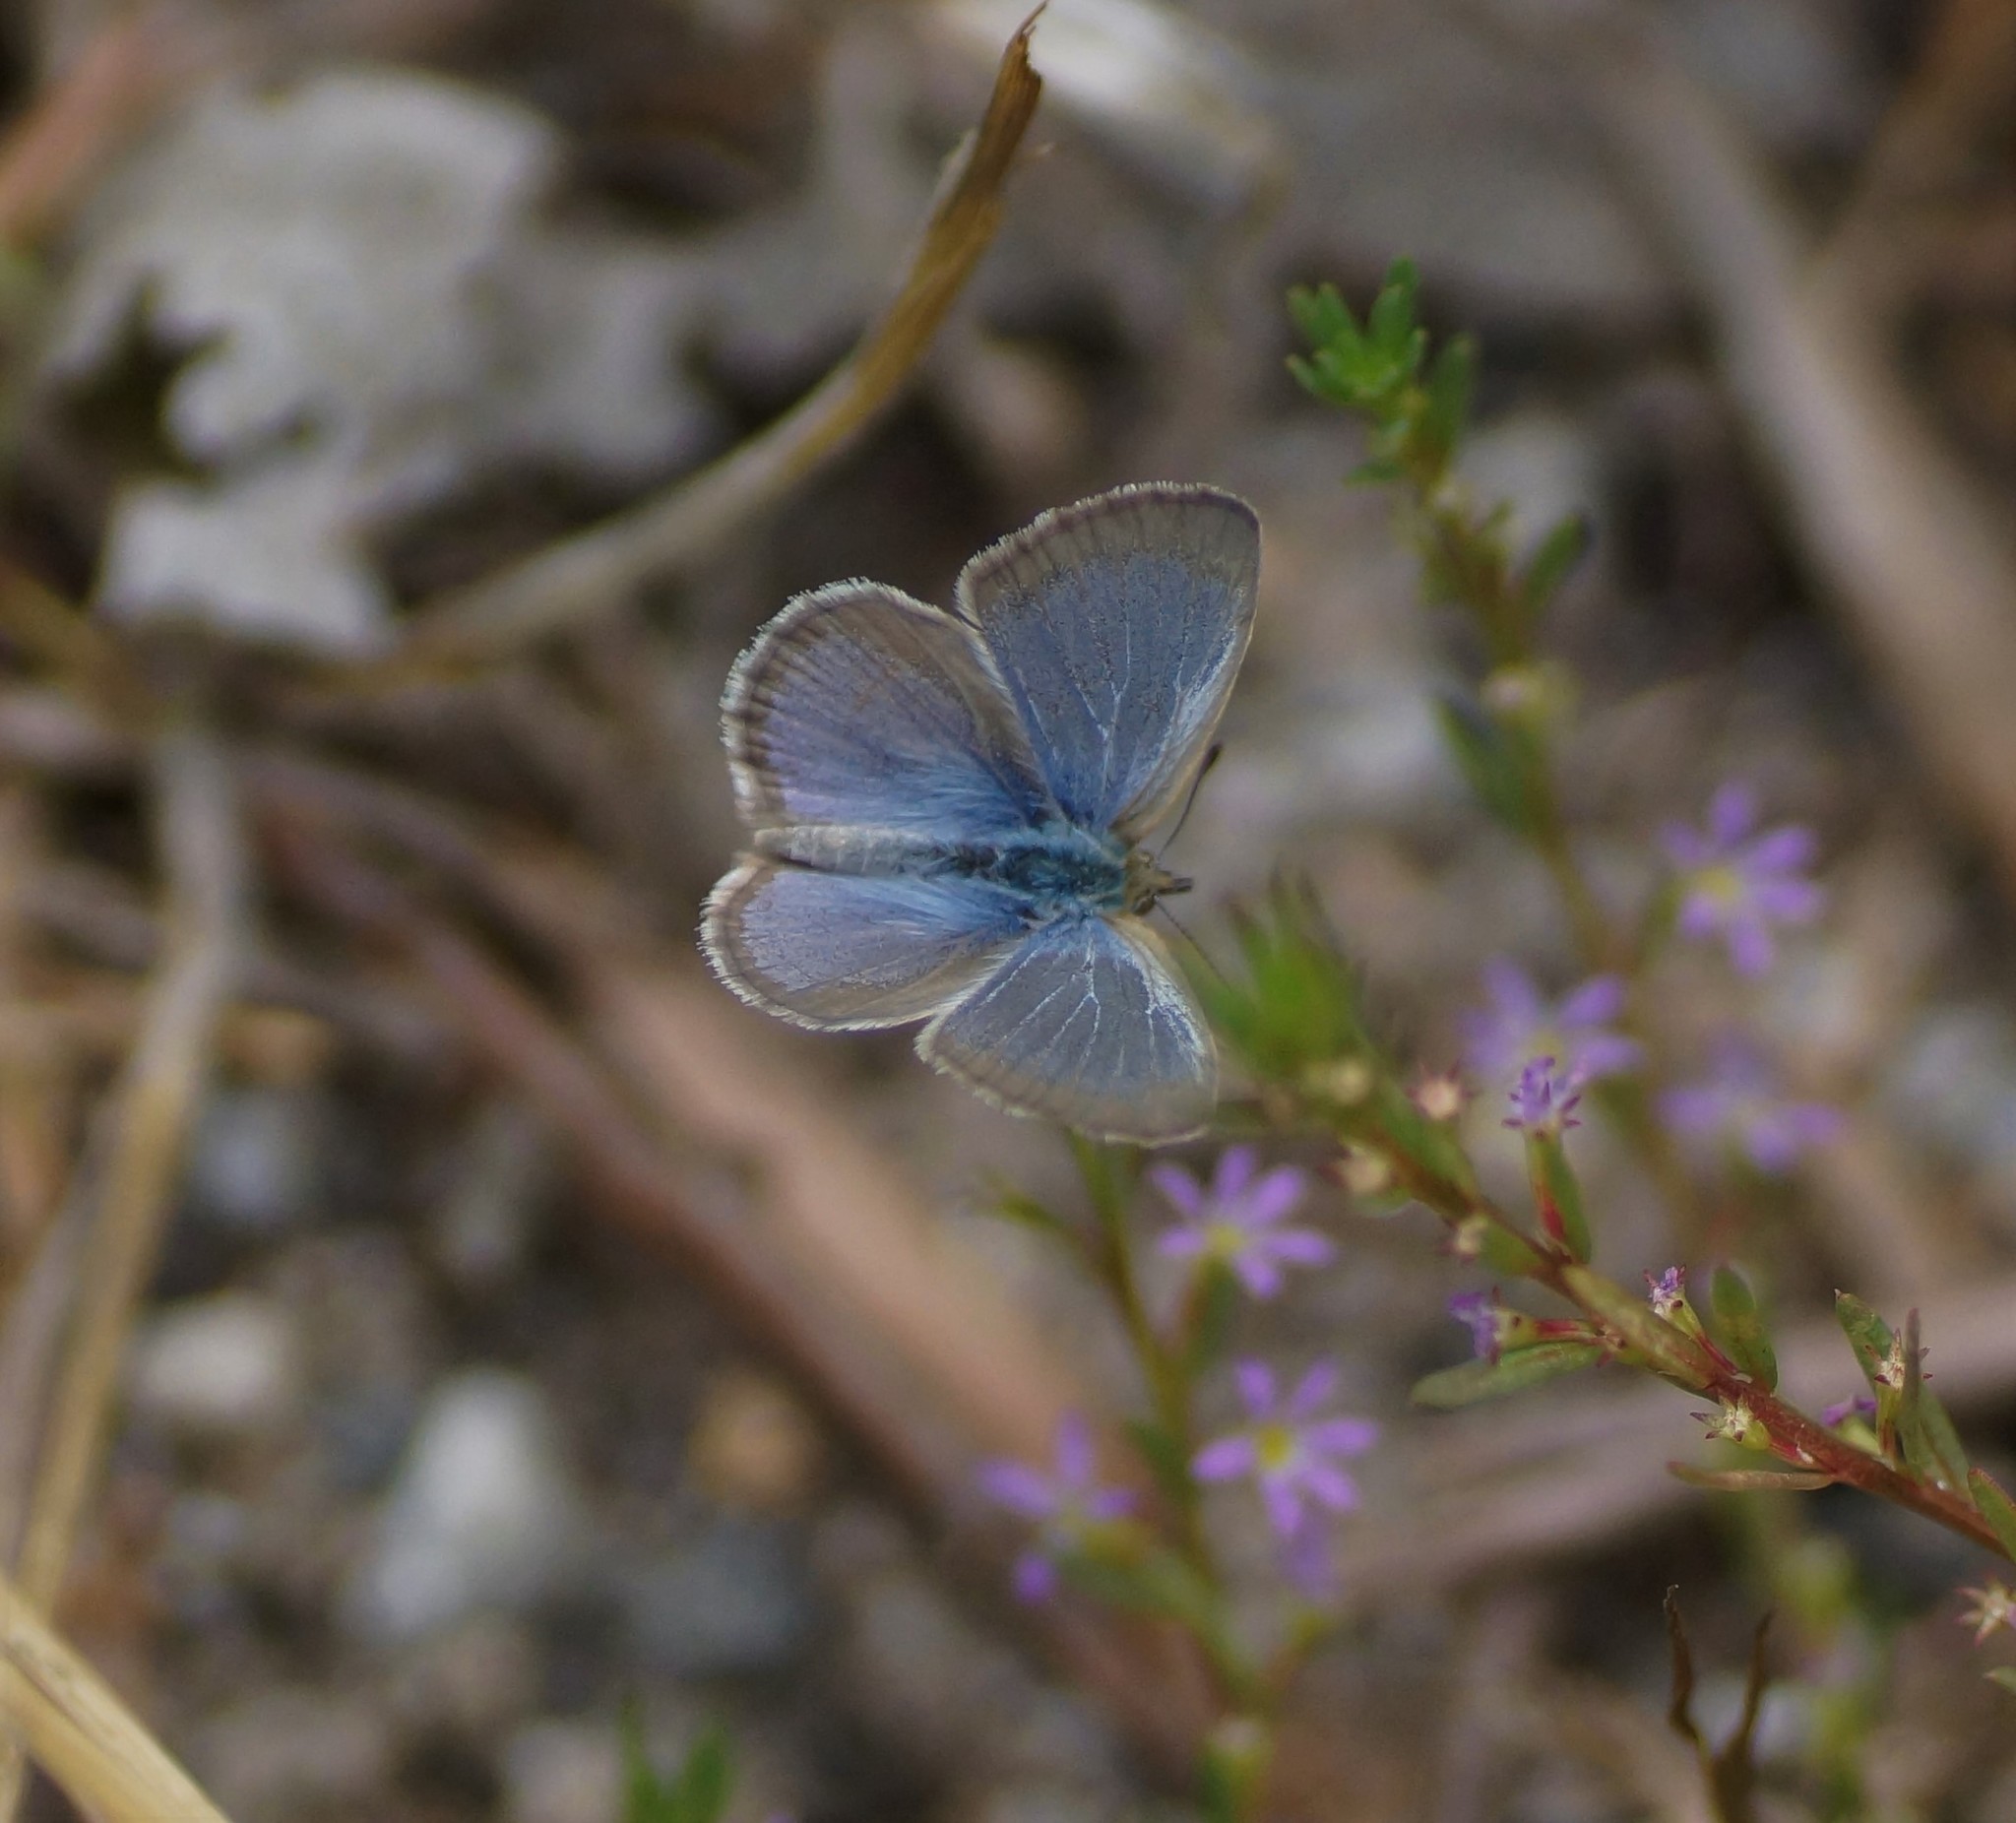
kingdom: Animalia
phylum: Arthropoda
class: Insecta
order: Lepidoptera
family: Lycaenidae
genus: Zizina
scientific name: Zizina labradus
